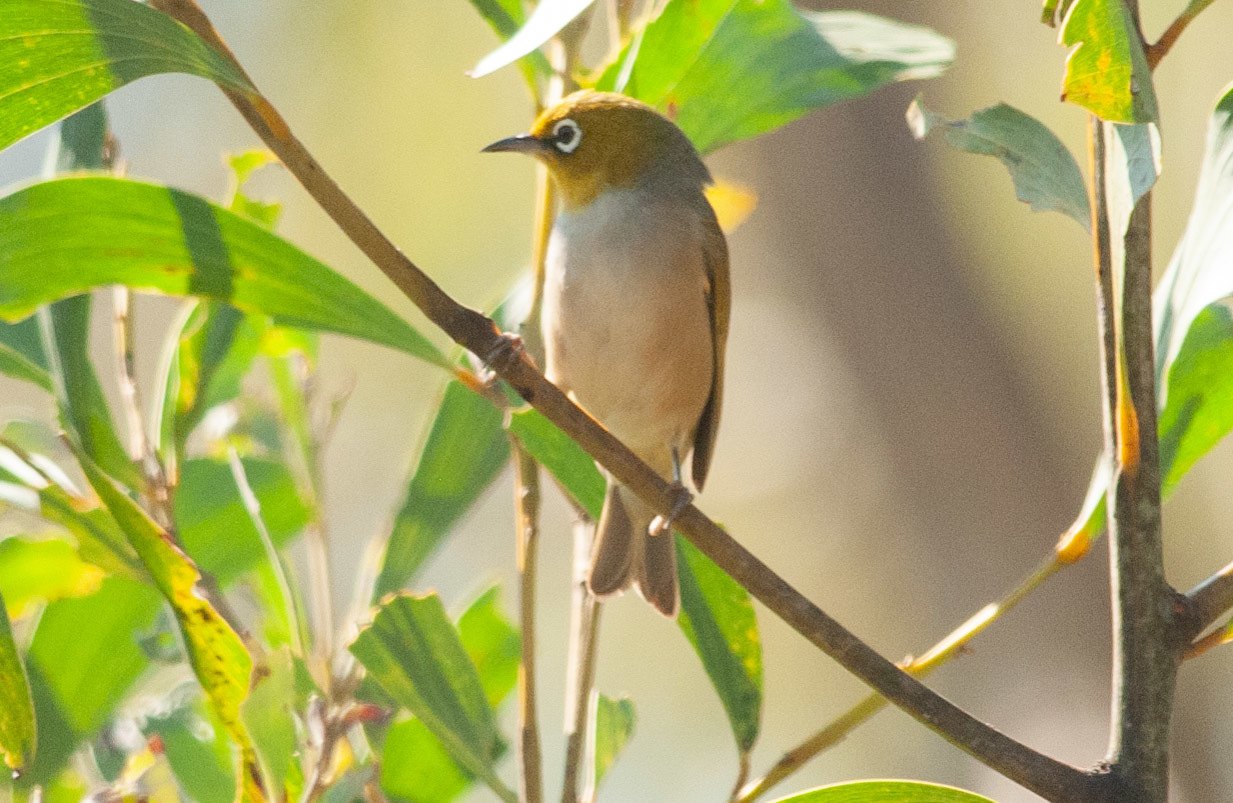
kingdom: Animalia
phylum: Chordata
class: Aves
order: Passeriformes
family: Zosteropidae
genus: Zosterops
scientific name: Zosterops lateralis
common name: Silvereye
